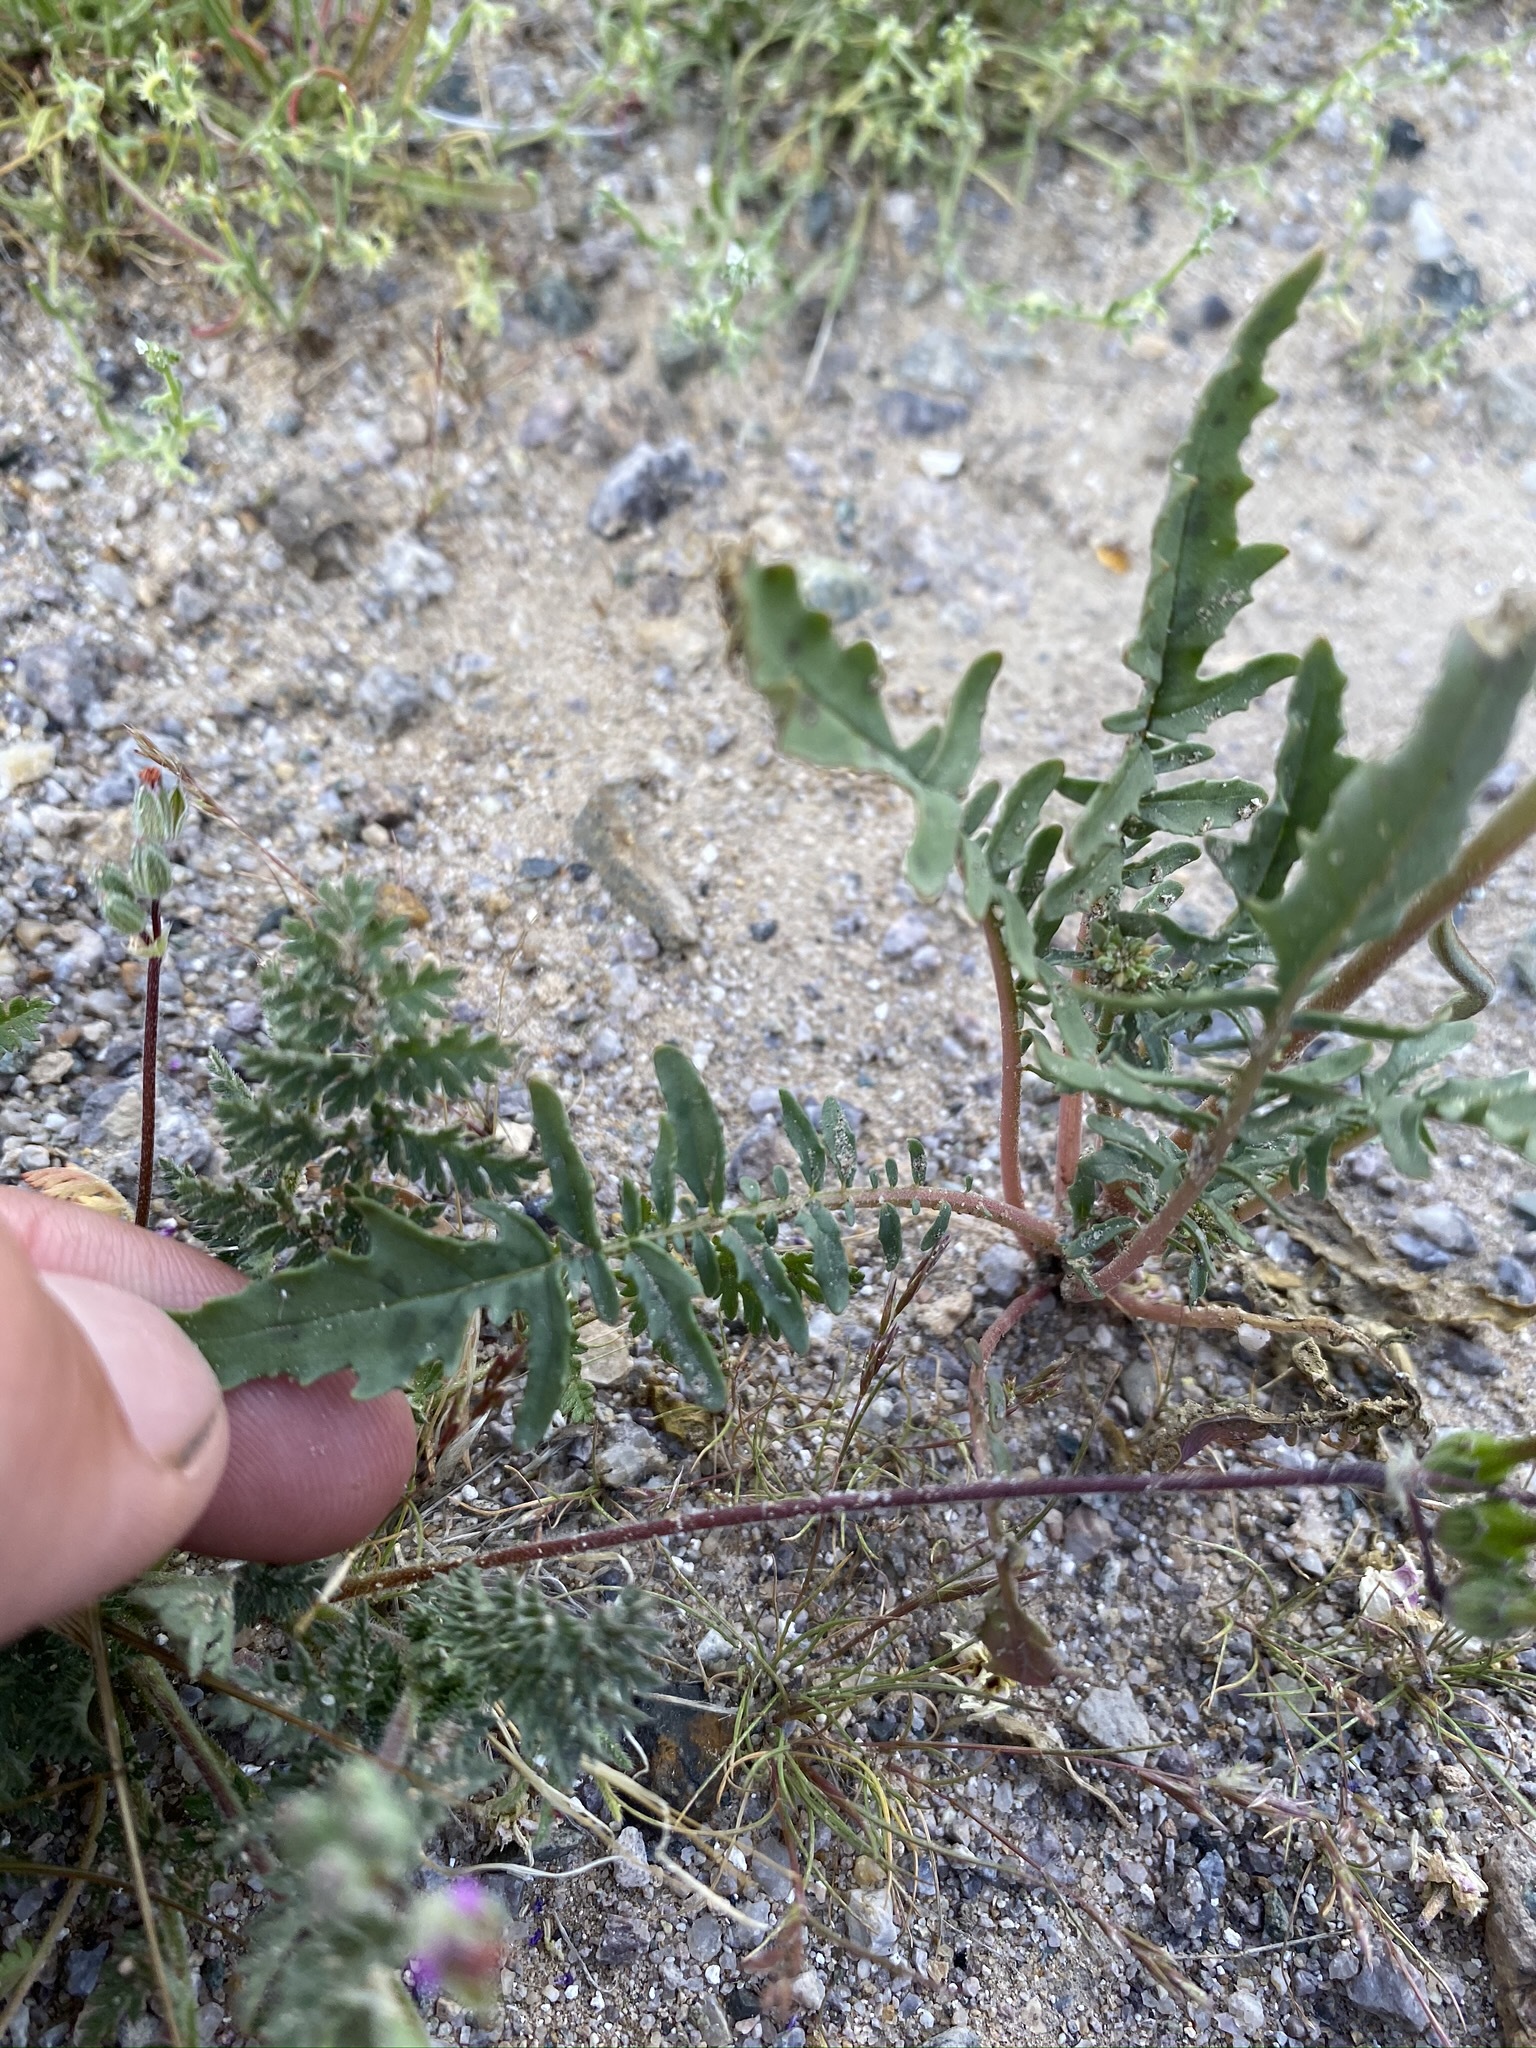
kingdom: Plantae
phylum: Tracheophyta
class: Magnoliopsida
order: Myrtales
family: Onagraceae
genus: Chylismia
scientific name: Chylismia claviformis
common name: Browneyes
